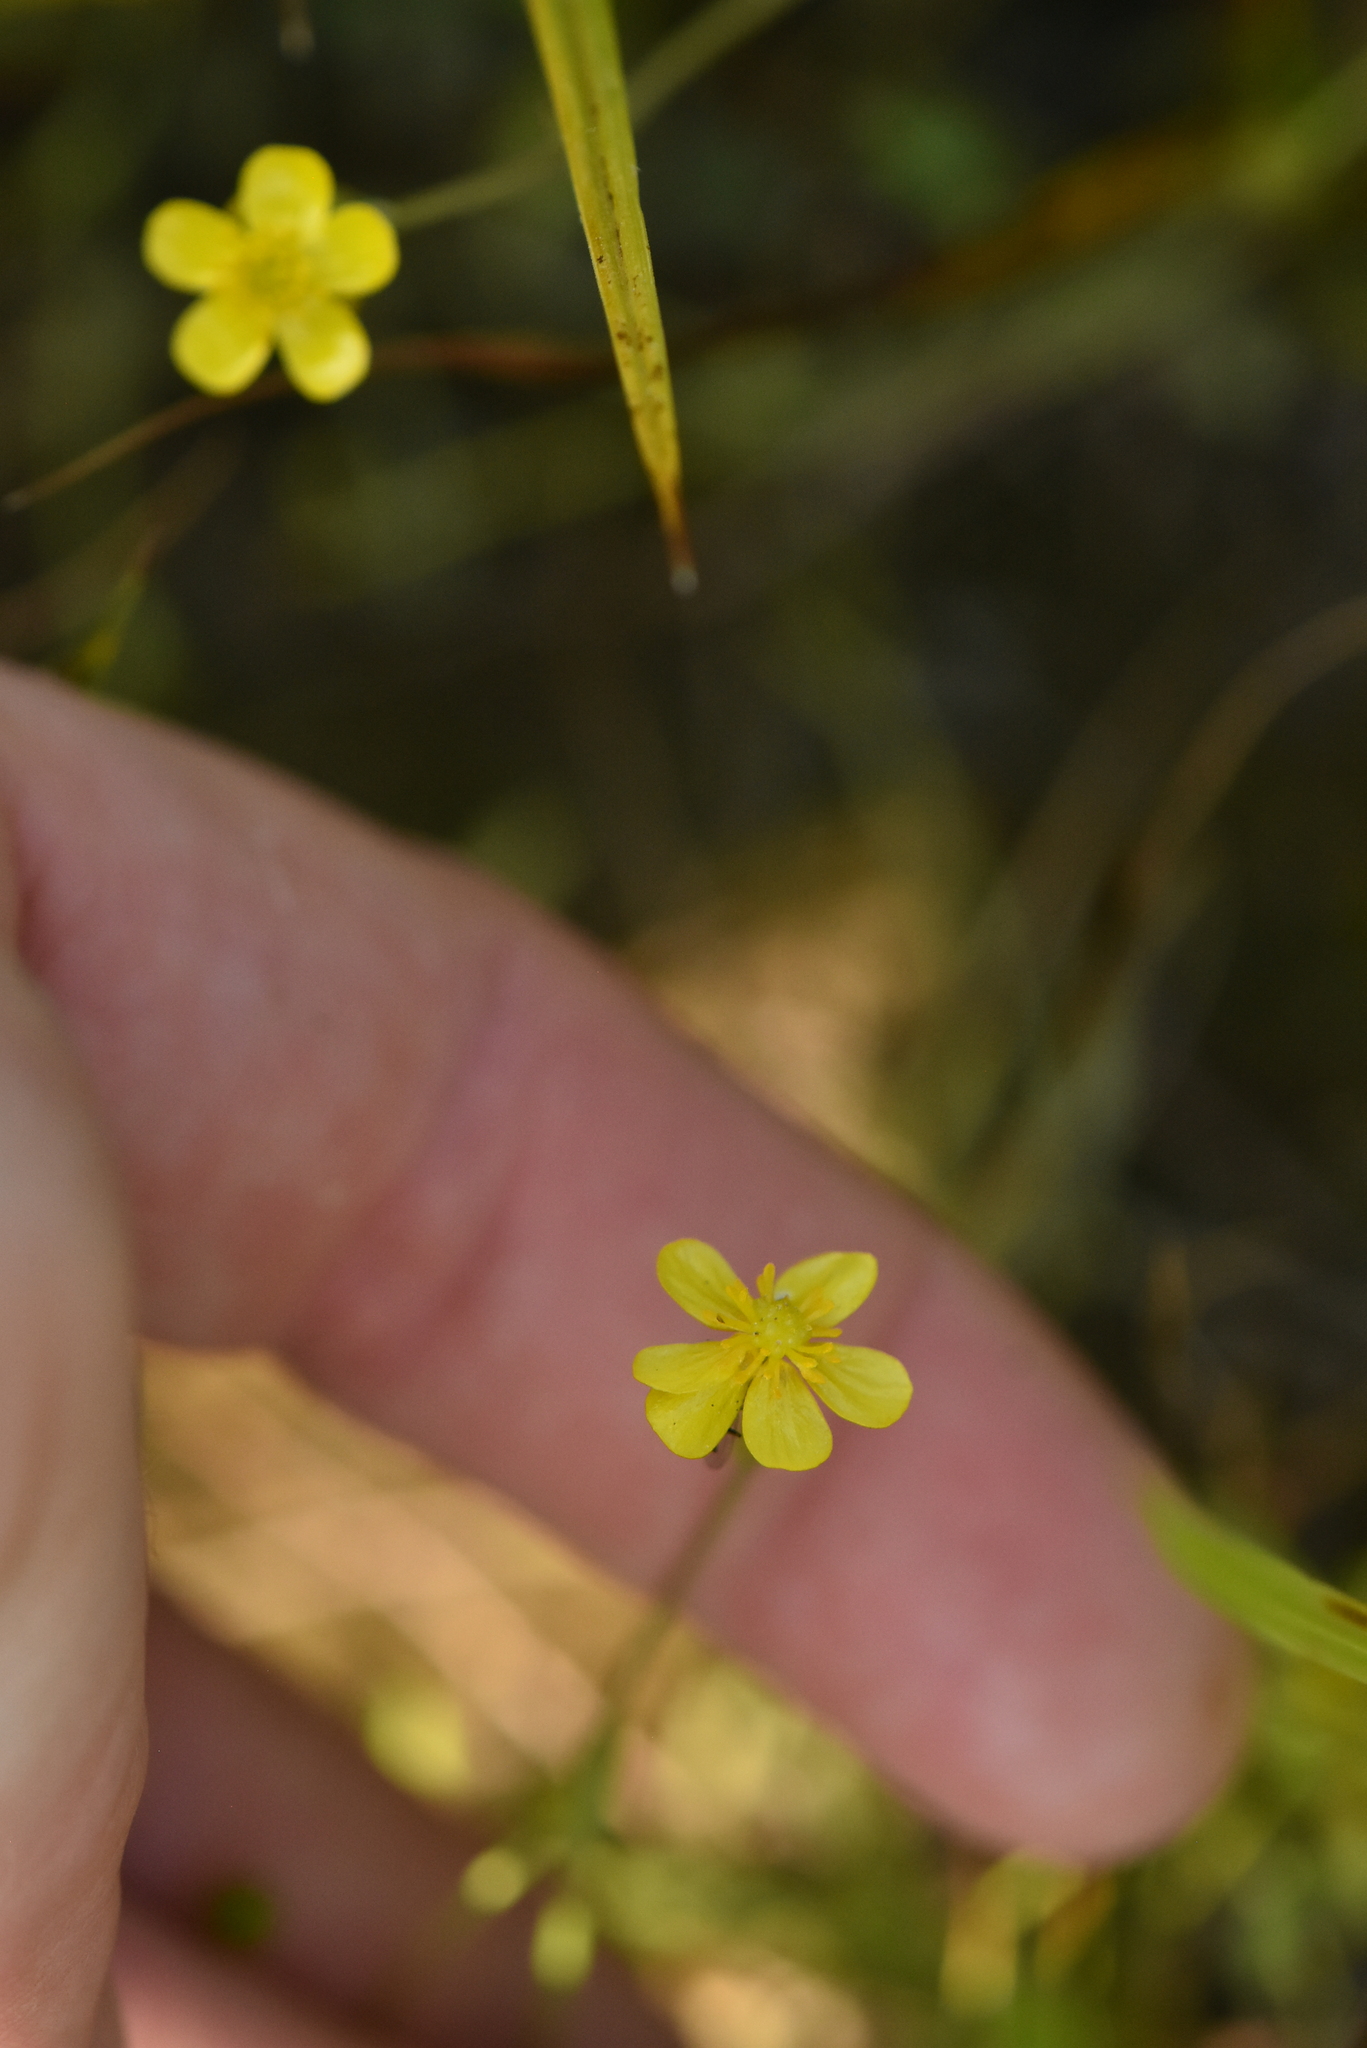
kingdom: Plantae
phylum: Tracheophyta
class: Magnoliopsida
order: Ranunculales
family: Ranunculaceae
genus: Ranunculus
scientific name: Ranunculus flammula
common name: Lesser spearwort
